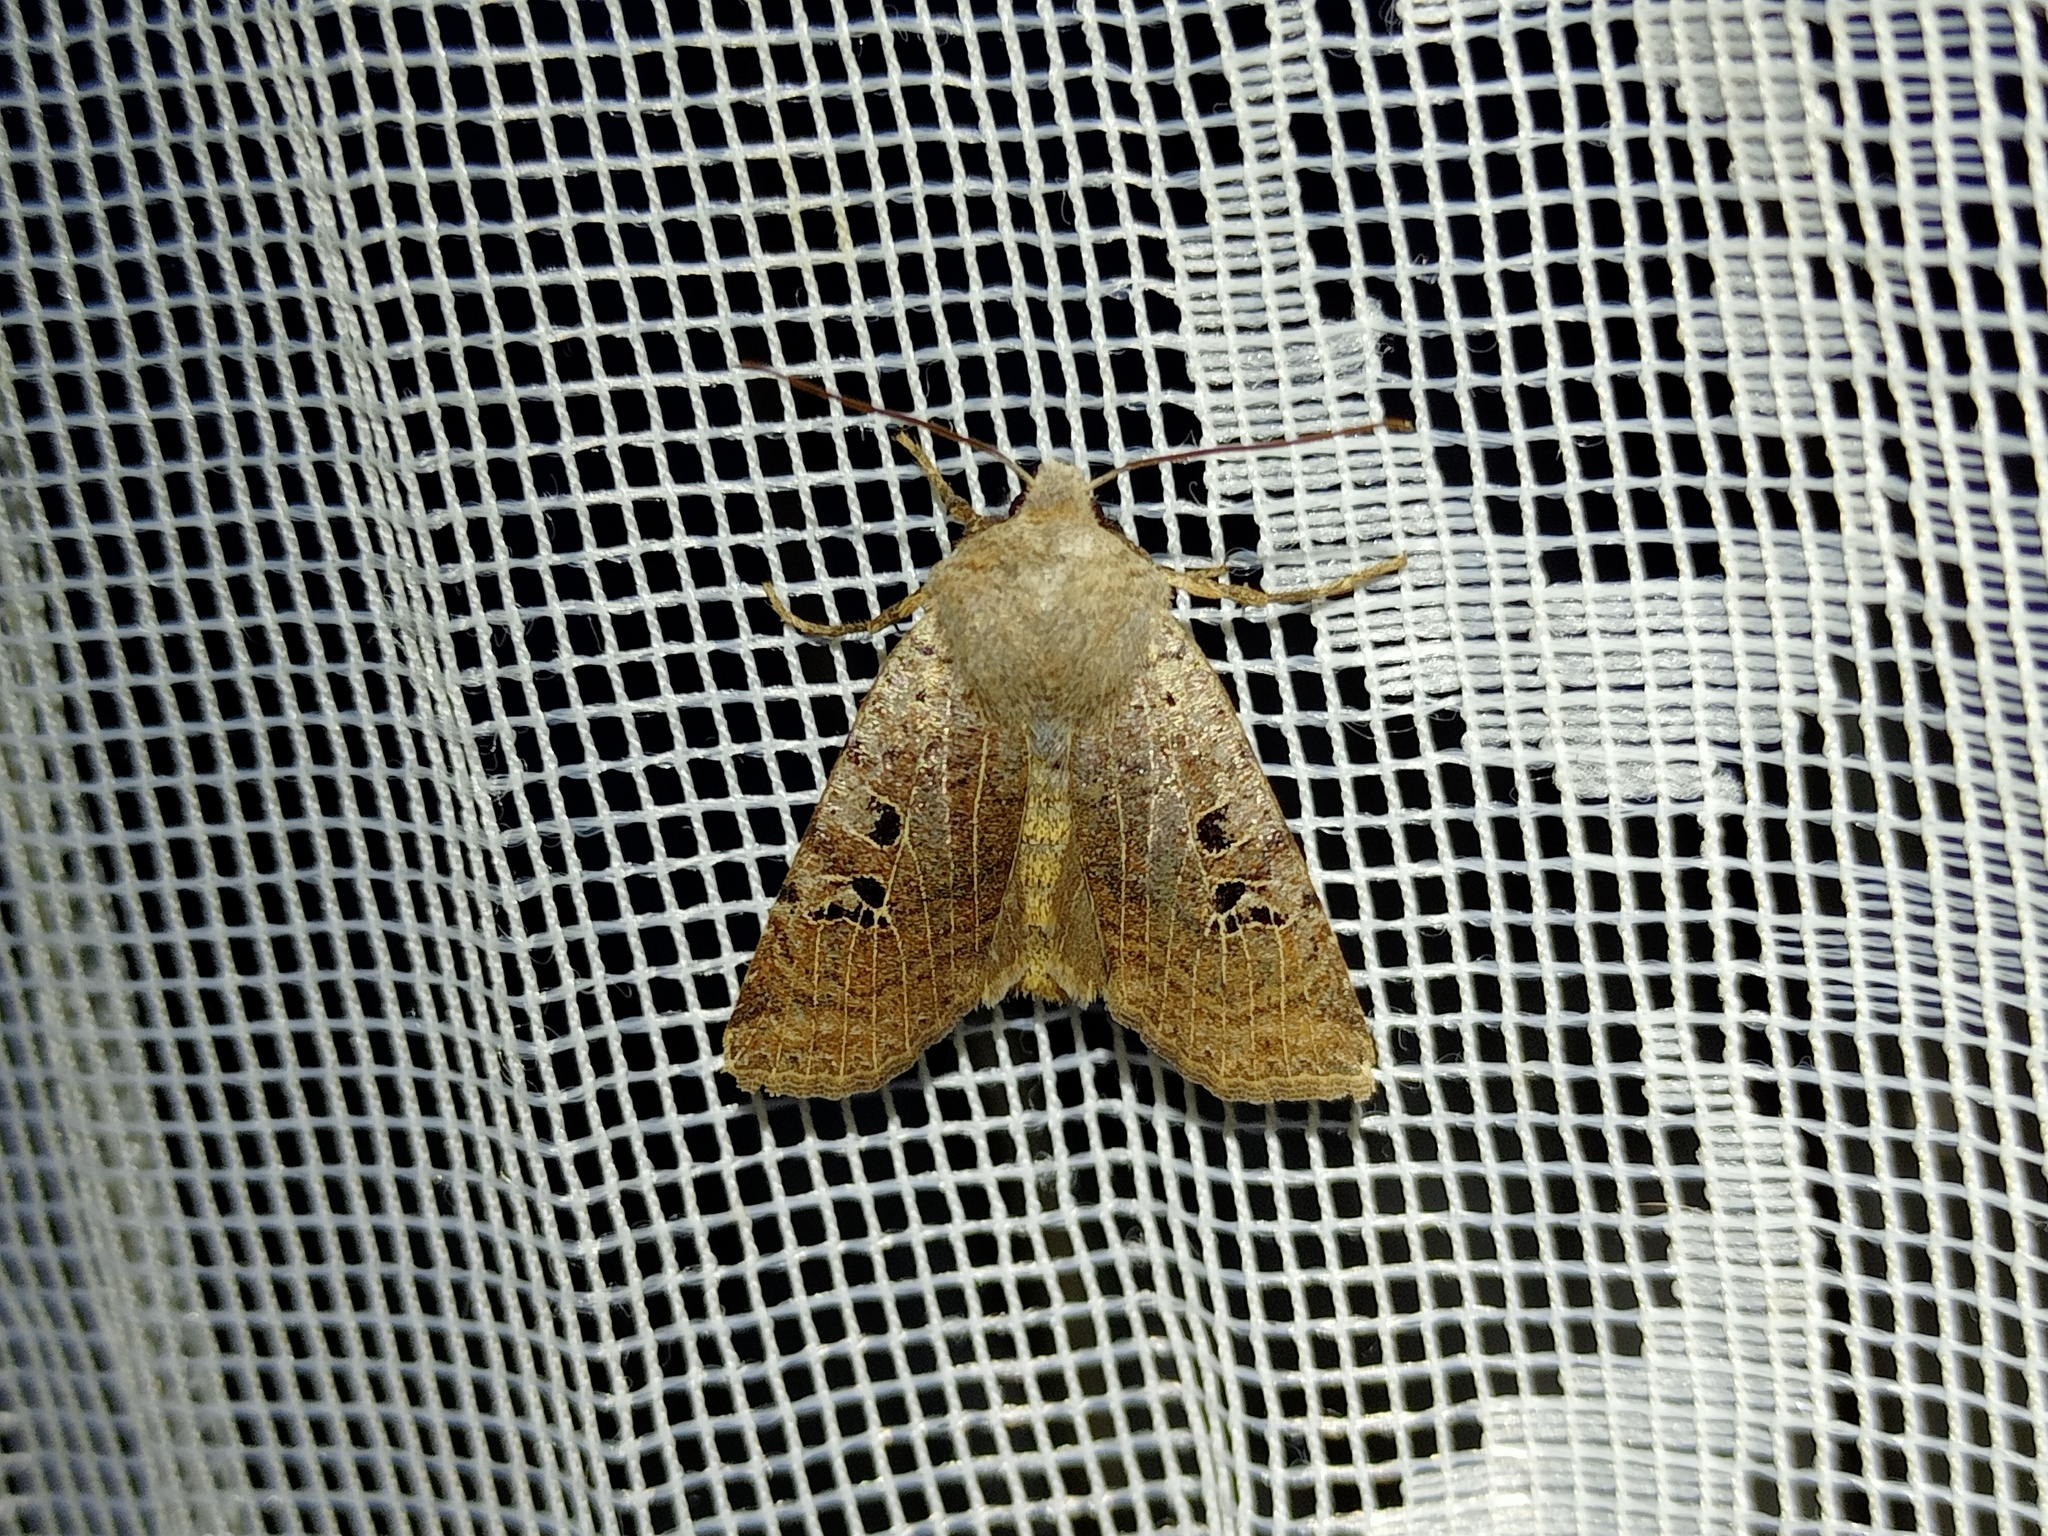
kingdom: Animalia
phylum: Arthropoda
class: Insecta
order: Lepidoptera
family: Noctuidae
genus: Conistra
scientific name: Conistra rubiginosa
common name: Black-spotted chestnut
